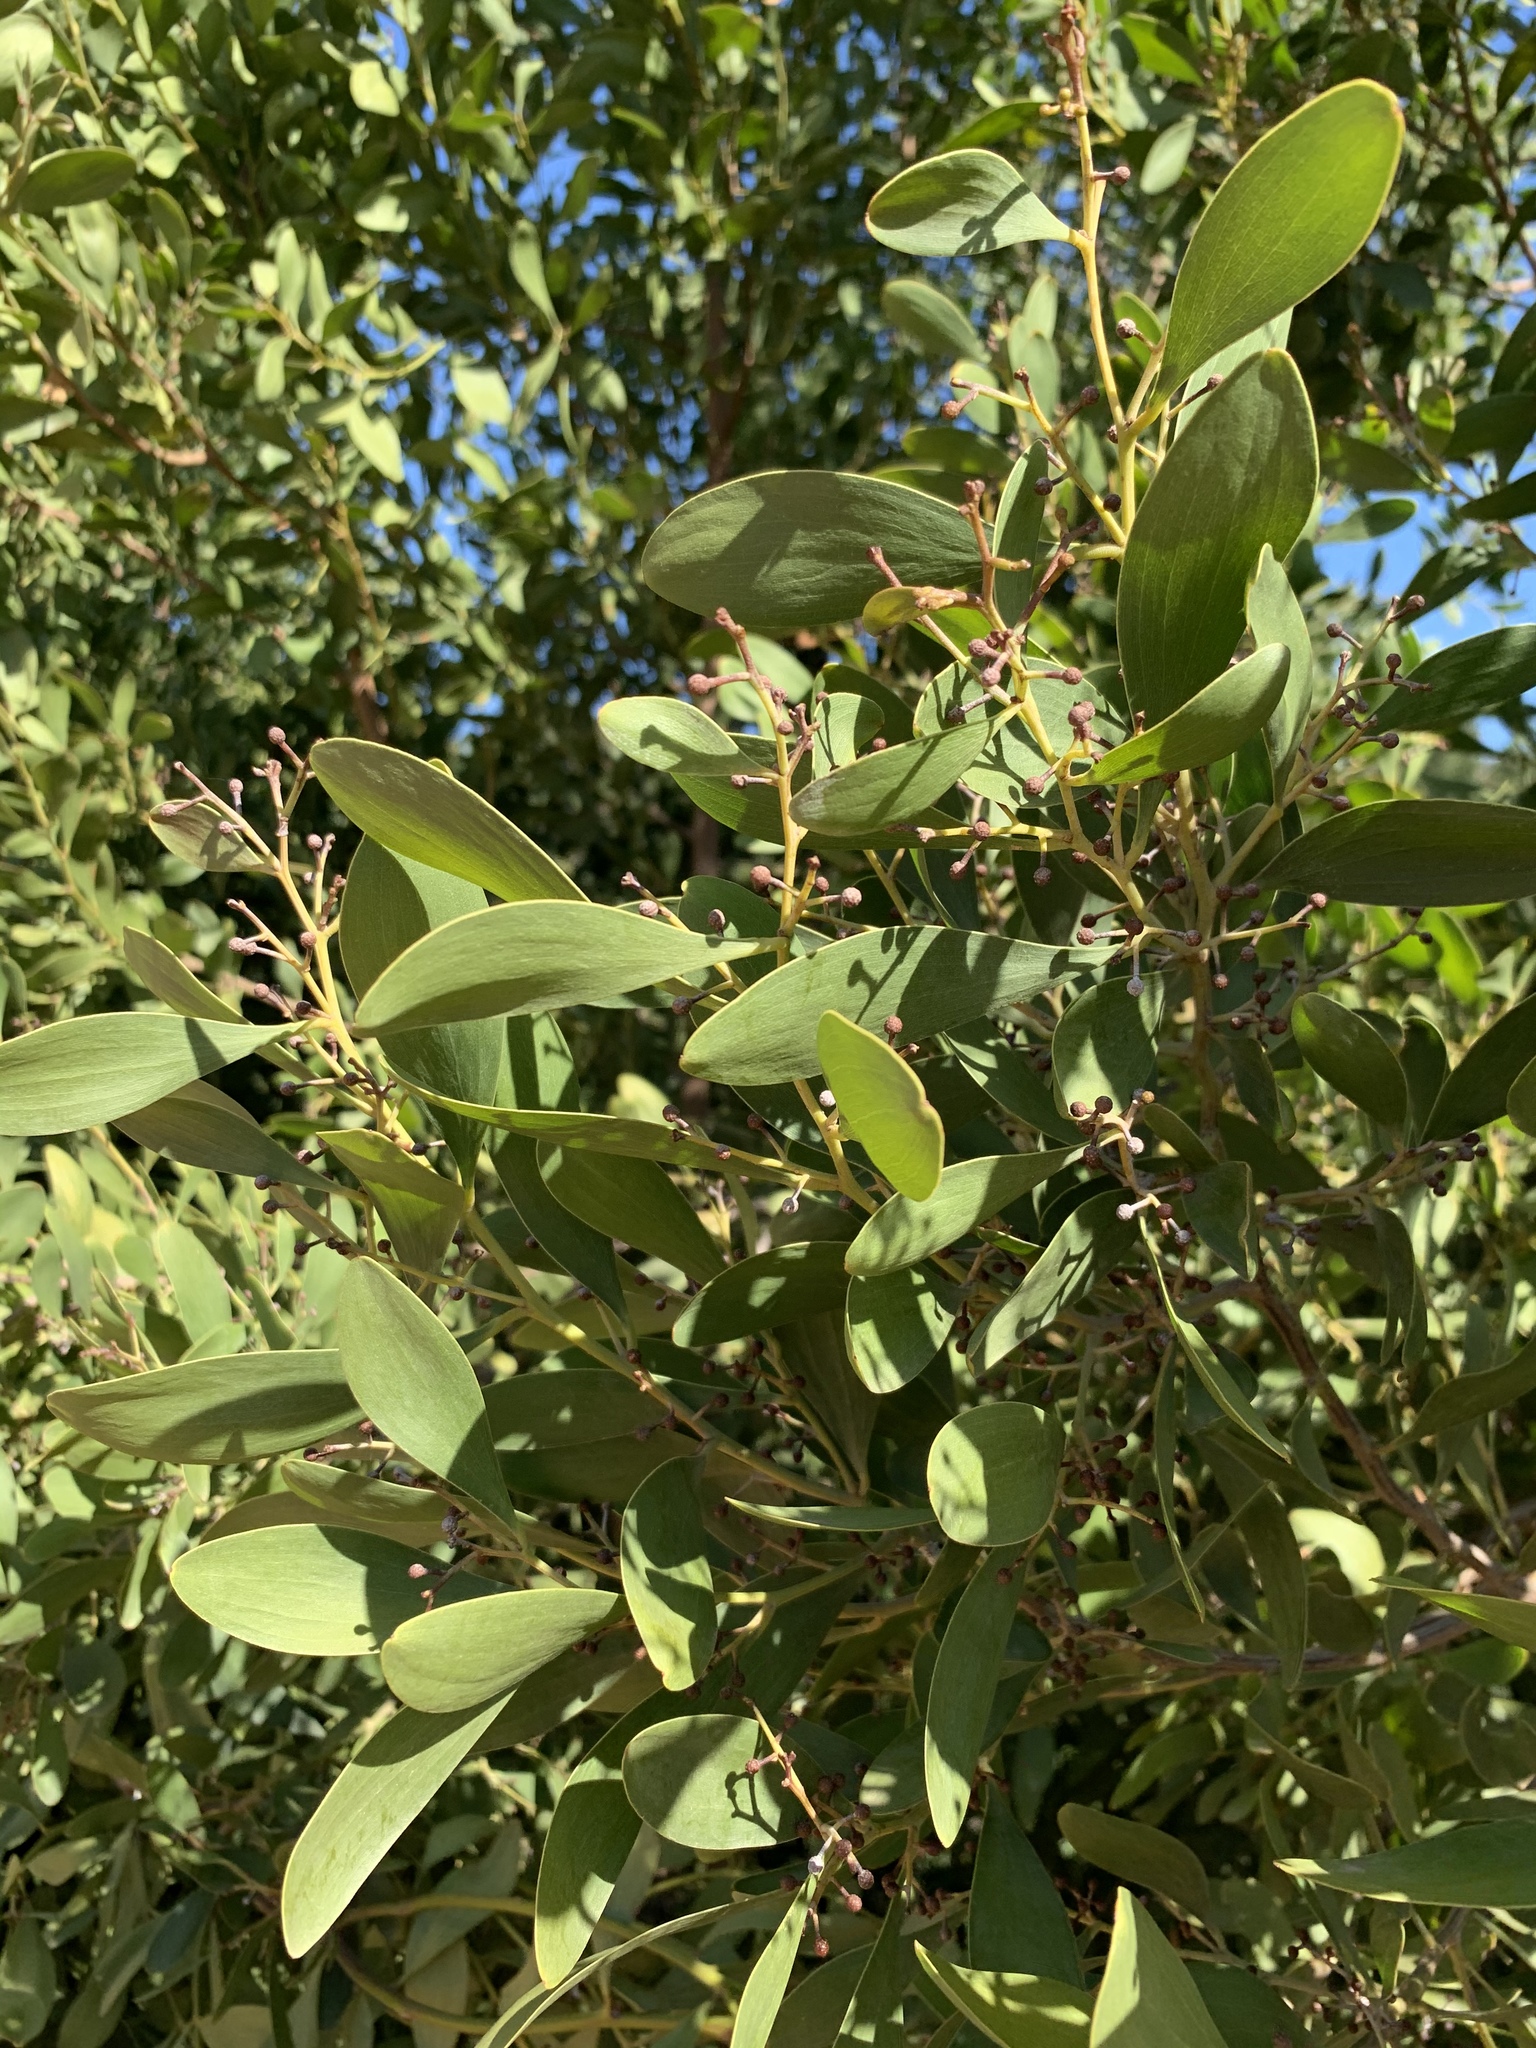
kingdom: Plantae
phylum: Tracheophyta
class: Magnoliopsida
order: Fabales
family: Fabaceae
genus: Acacia
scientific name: Acacia melanoxylon
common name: Blackwood
